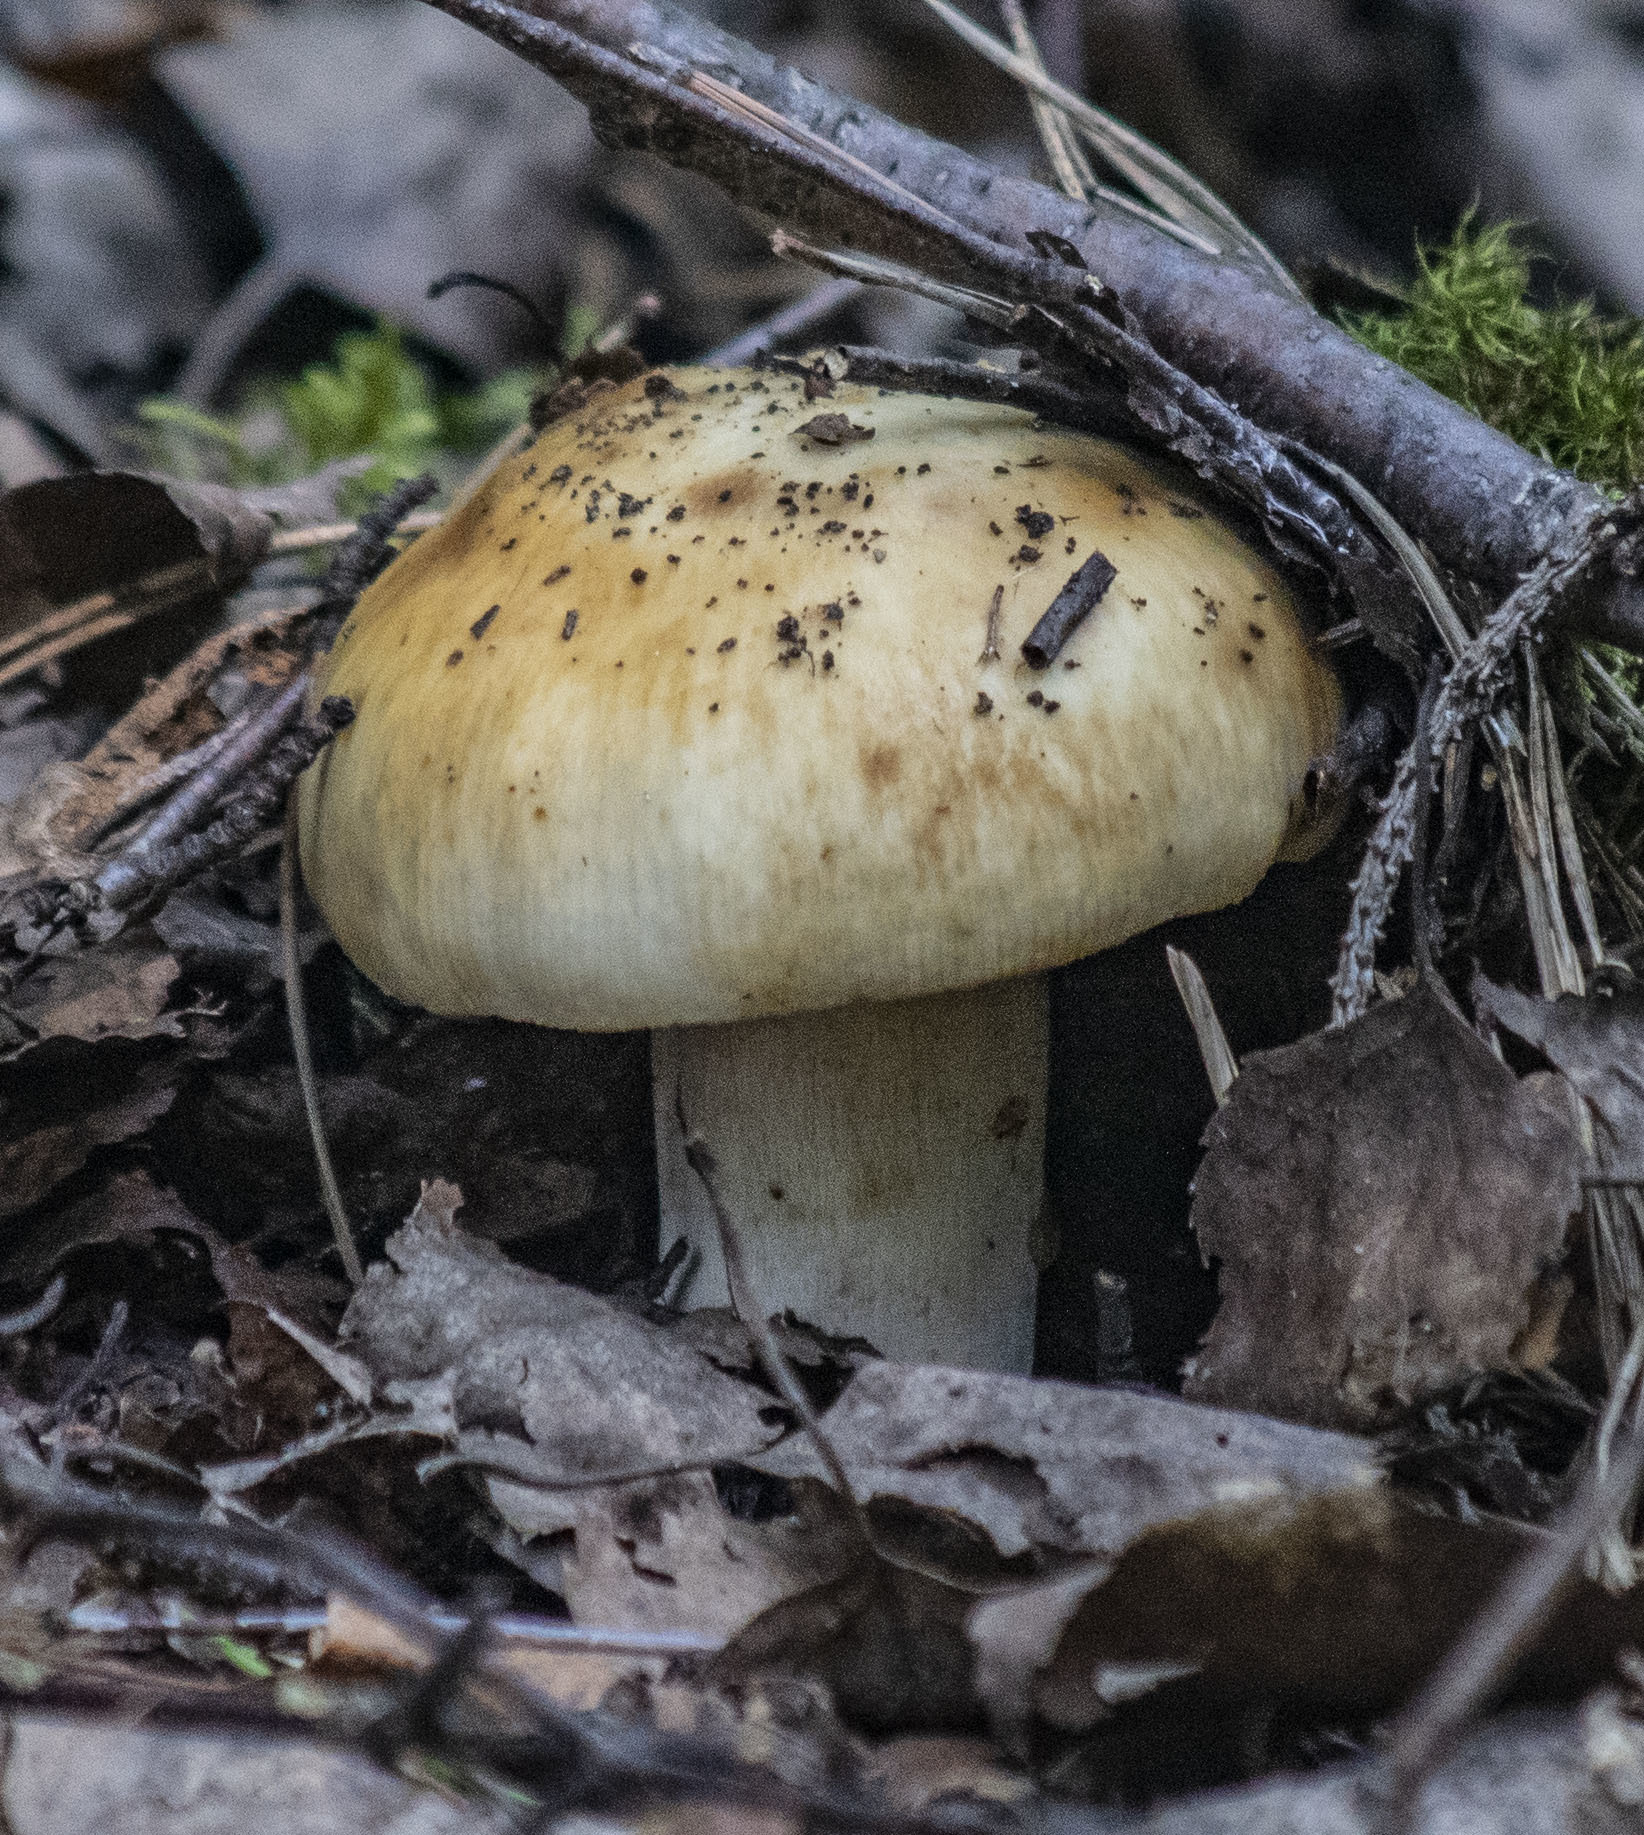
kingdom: Fungi
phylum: Basidiomycota
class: Agaricomycetes
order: Russulales
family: Russulaceae
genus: Russula
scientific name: Russula foetens
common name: Foetid russula
